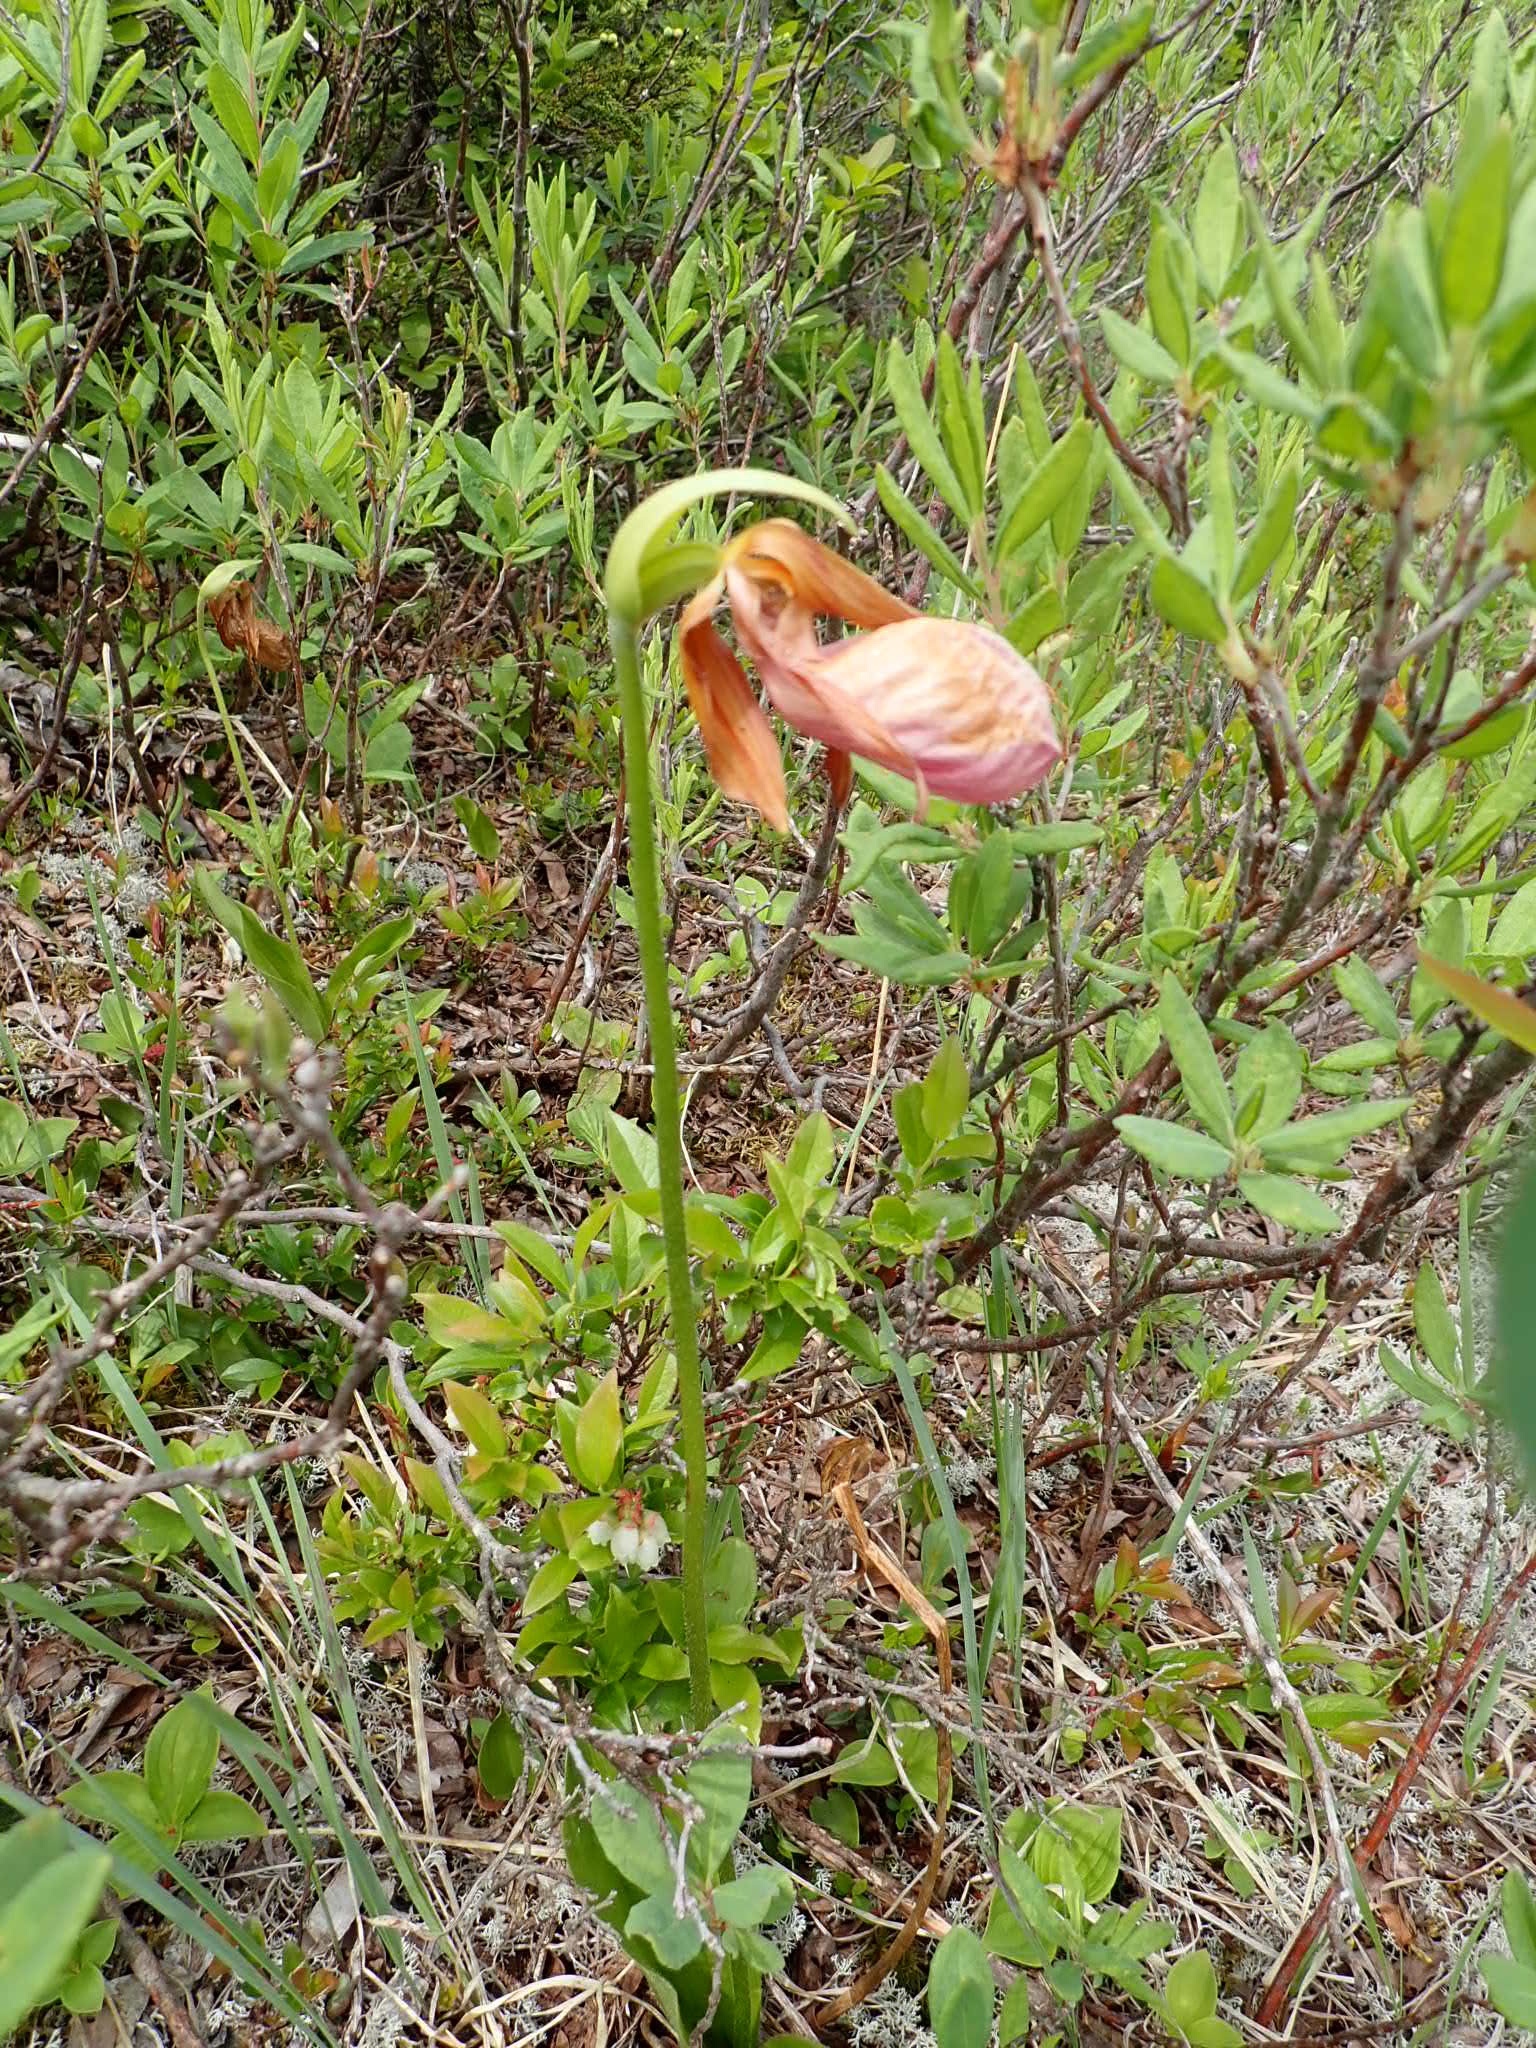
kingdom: Plantae
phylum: Tracheophyta
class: Liliopsida
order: Asparagales
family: Orchidaceae
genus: Cypripedium
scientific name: Cypripedium acaule
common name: Pink lady's-slipper
